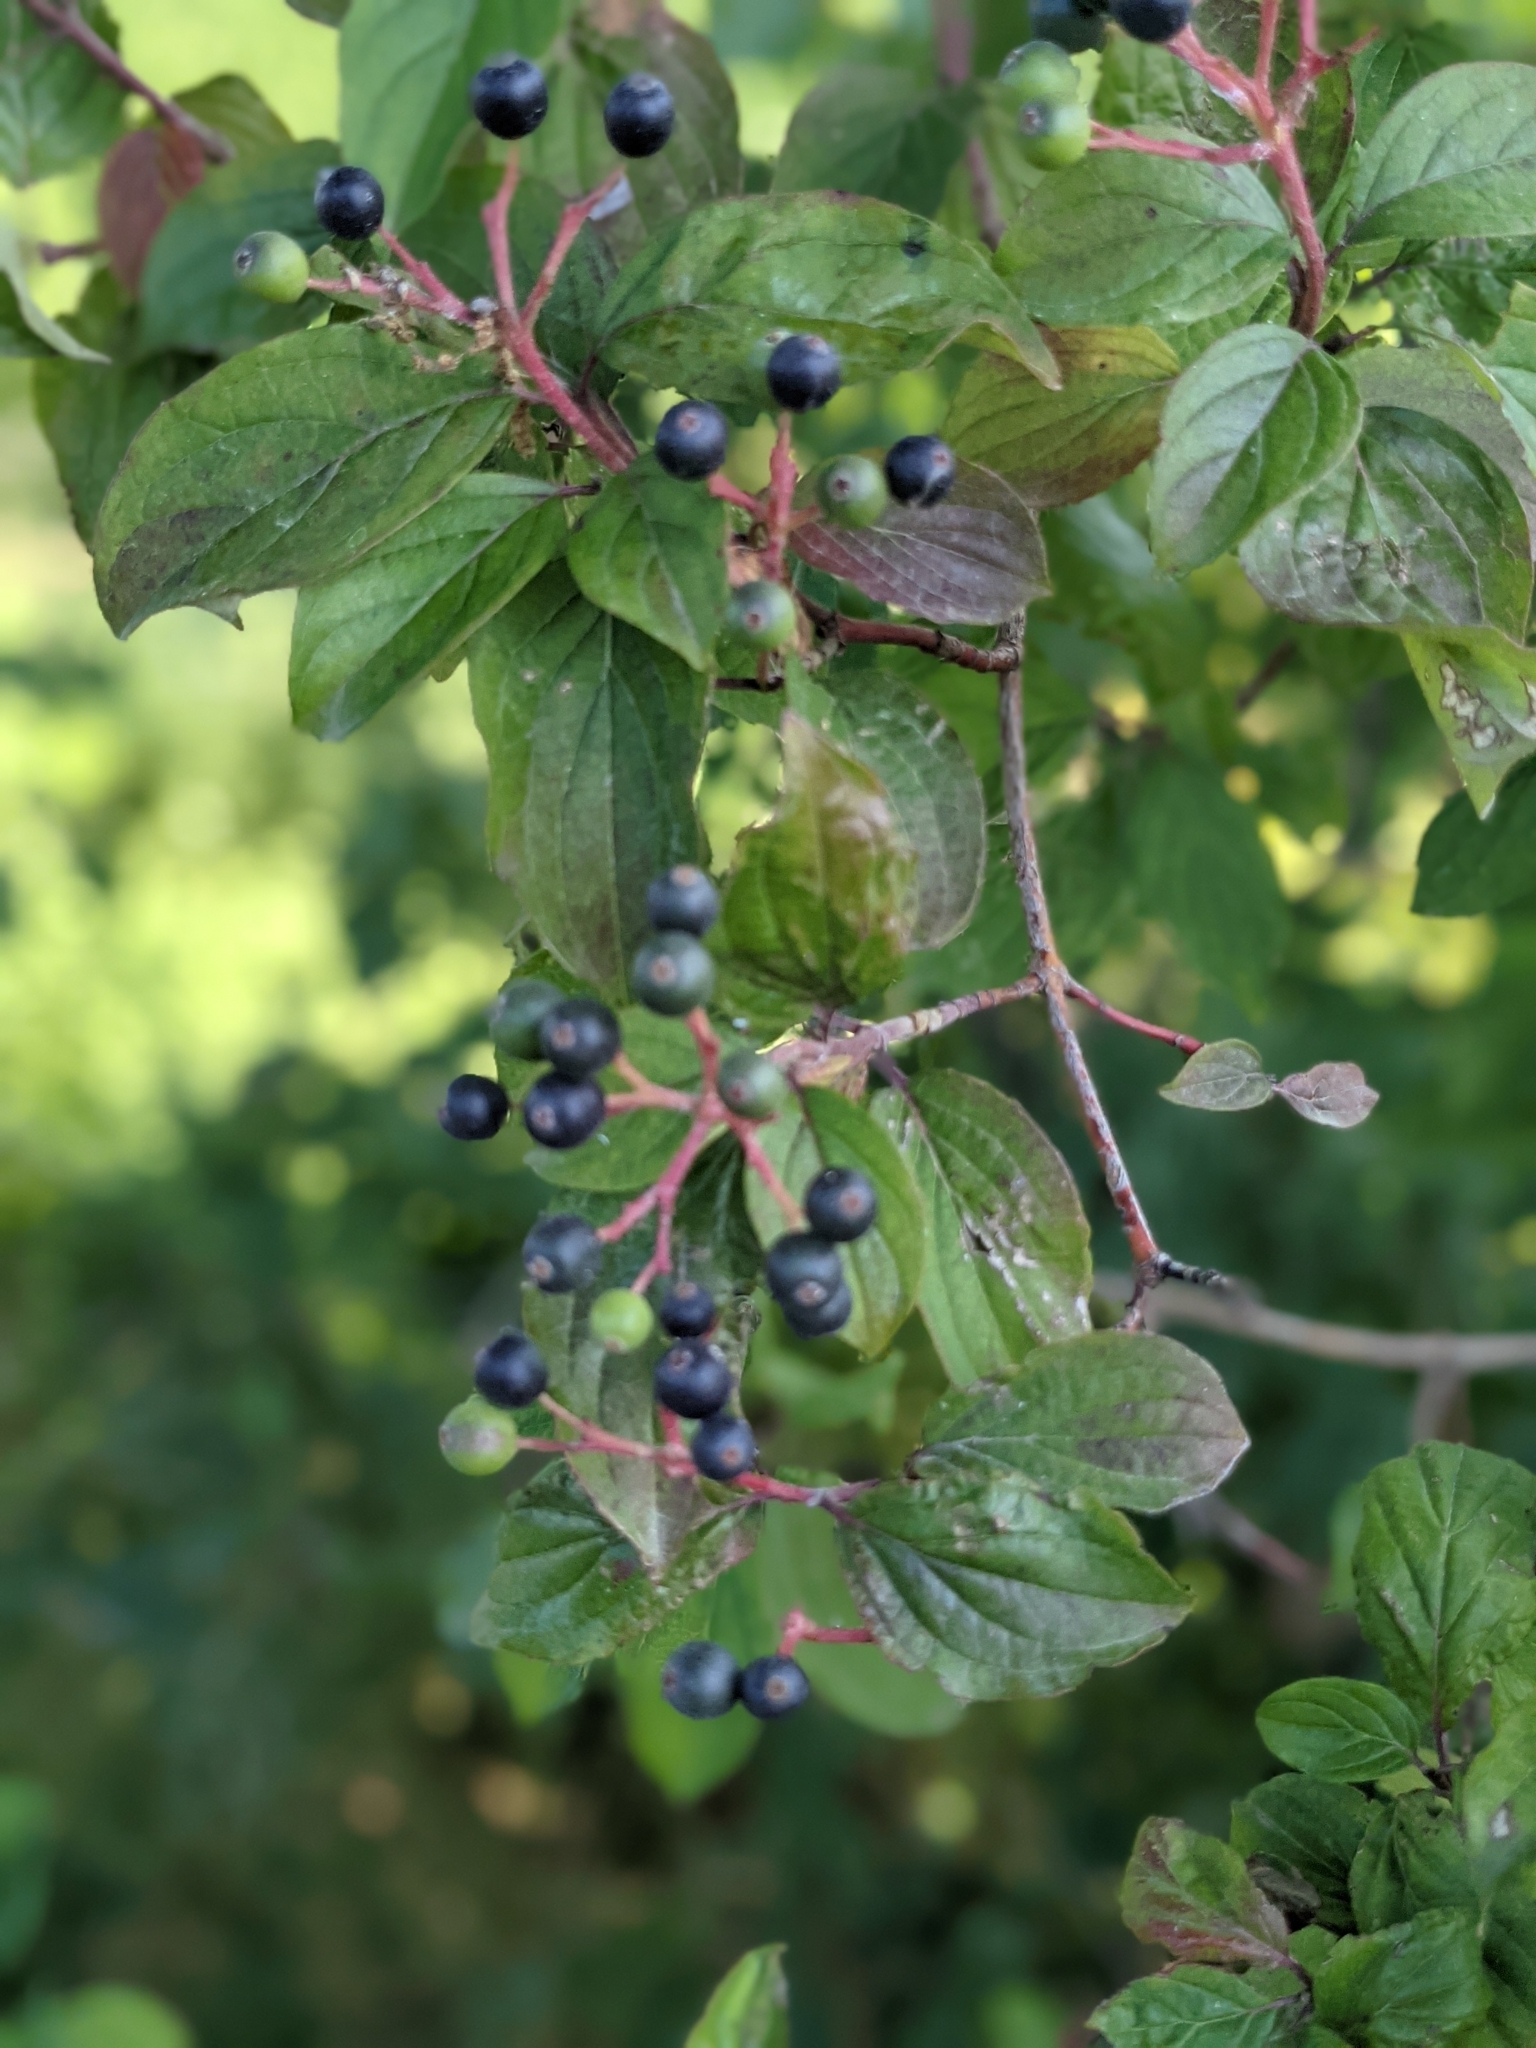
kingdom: Plantae
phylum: Tracheophyta
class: Magnoliopsida
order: Cornales
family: Cornaceae
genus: Cornus
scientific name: Cornus sanguinea
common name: Dogwood
